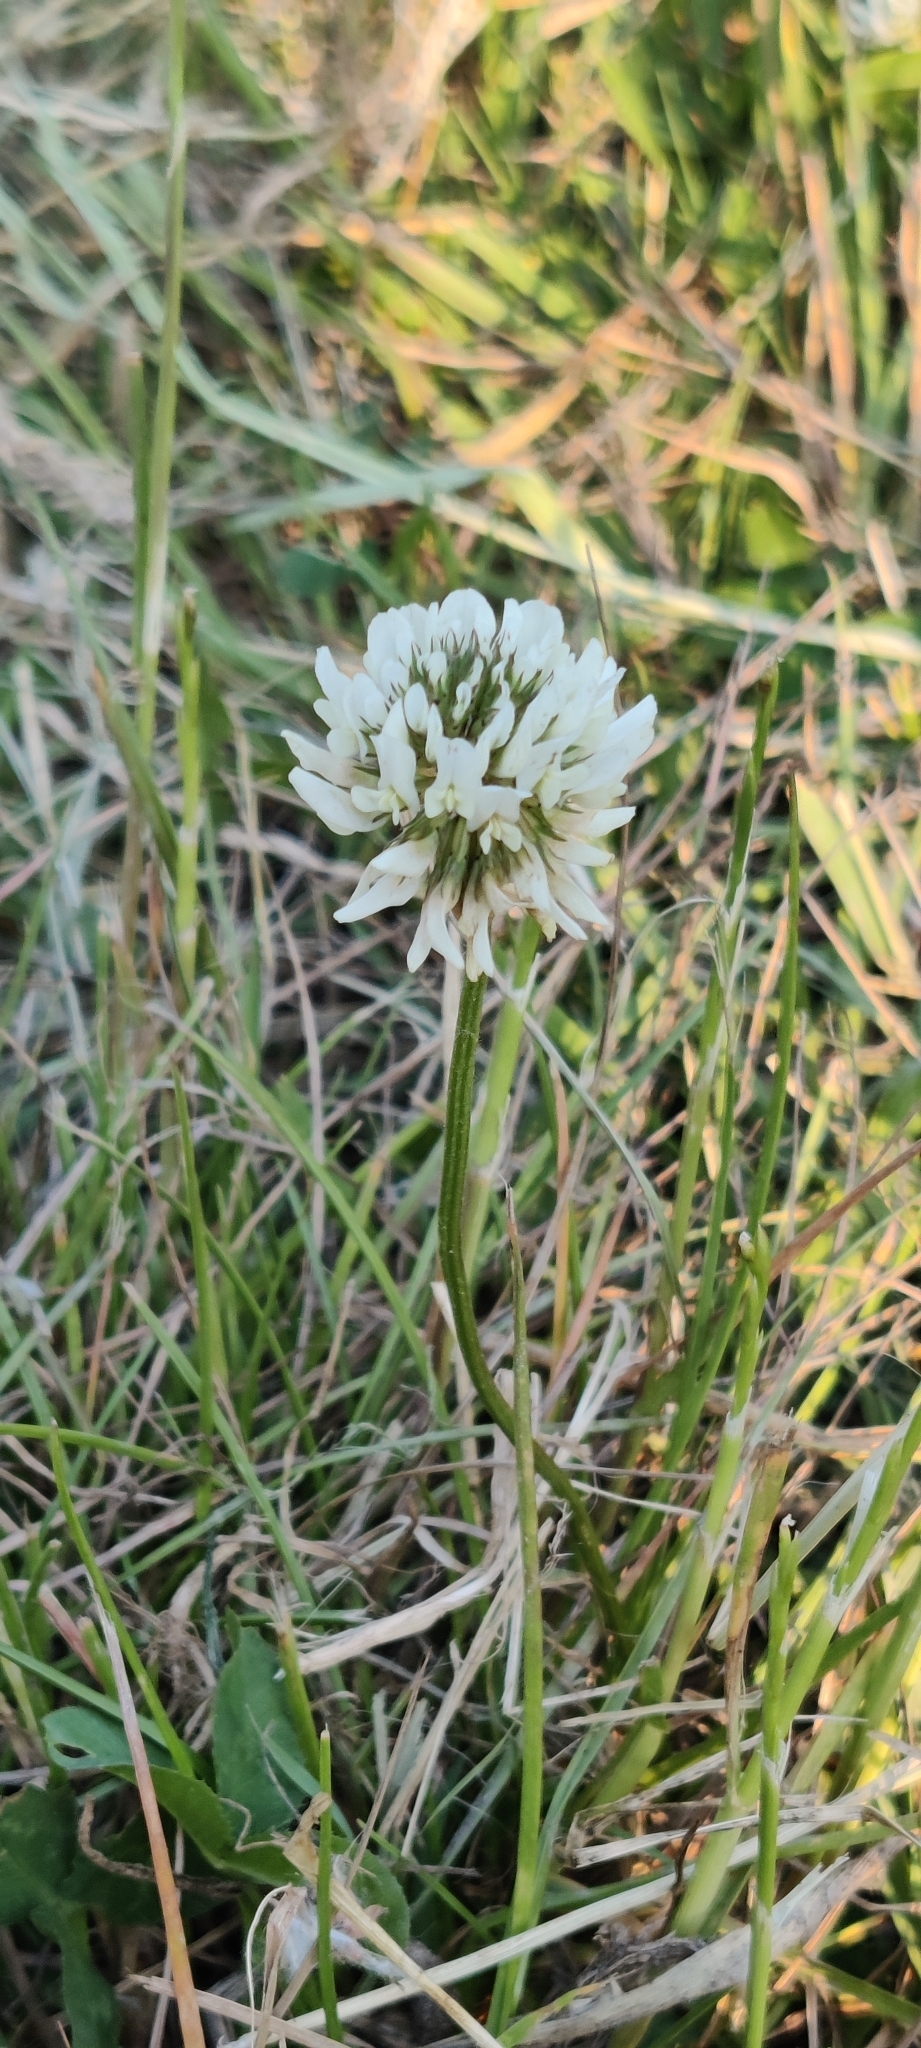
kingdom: Plantae
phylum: Tracheophyta
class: Magnoliopsida
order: Fabales
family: Fabaceae
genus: Trifolium
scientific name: Trifolium repens
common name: White clover
